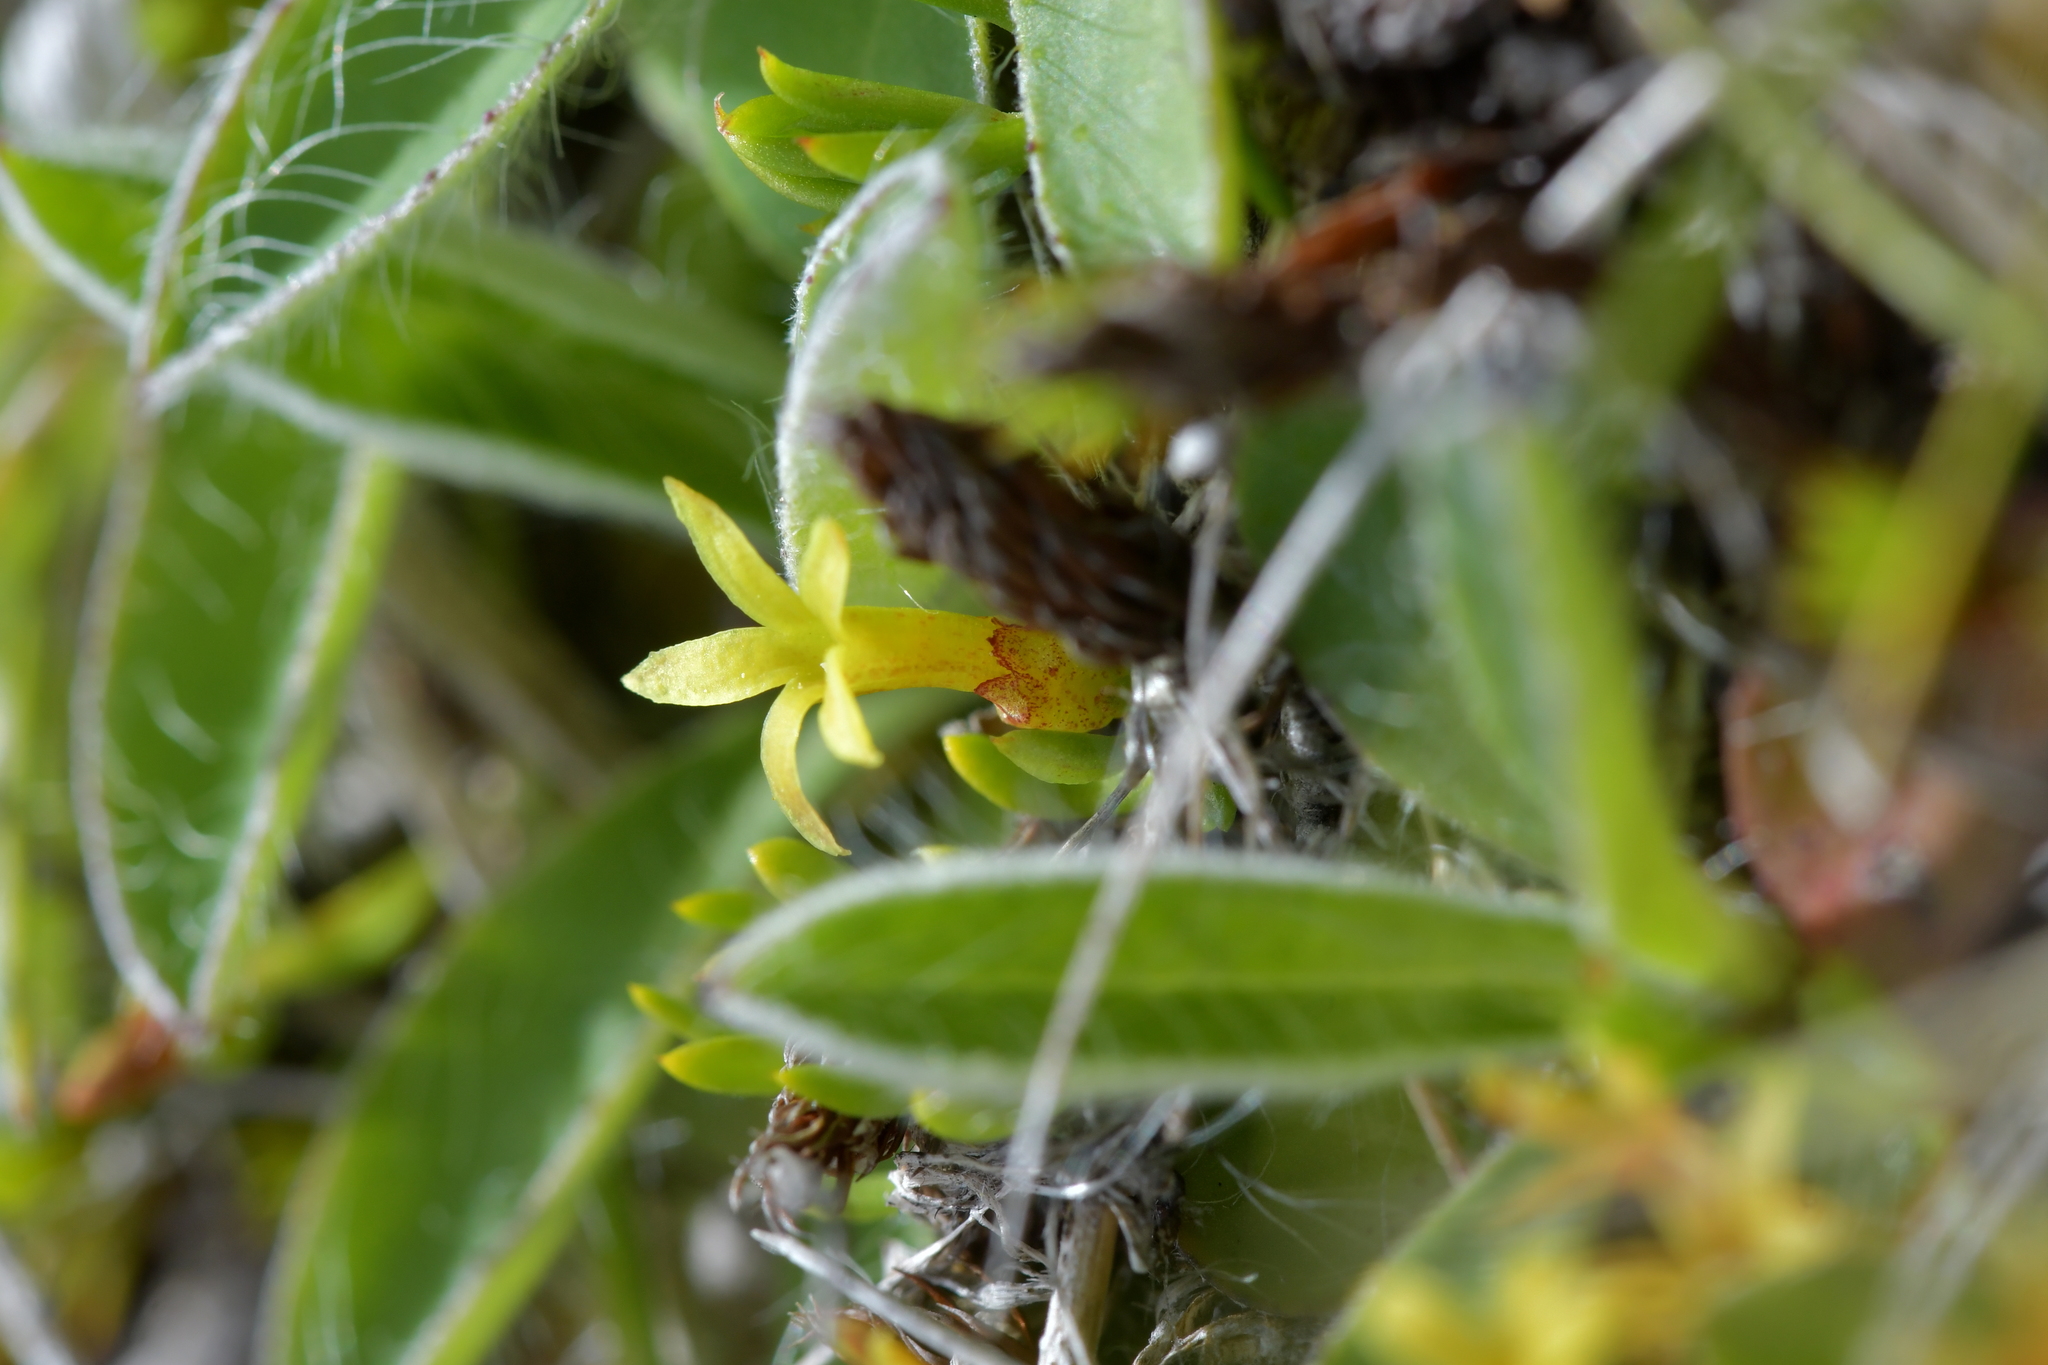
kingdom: Plantae
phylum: Tracheophyta
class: Magnoliopsida
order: Celastrales
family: Celastraceae
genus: Stackhousia
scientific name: Stackhousia minima
